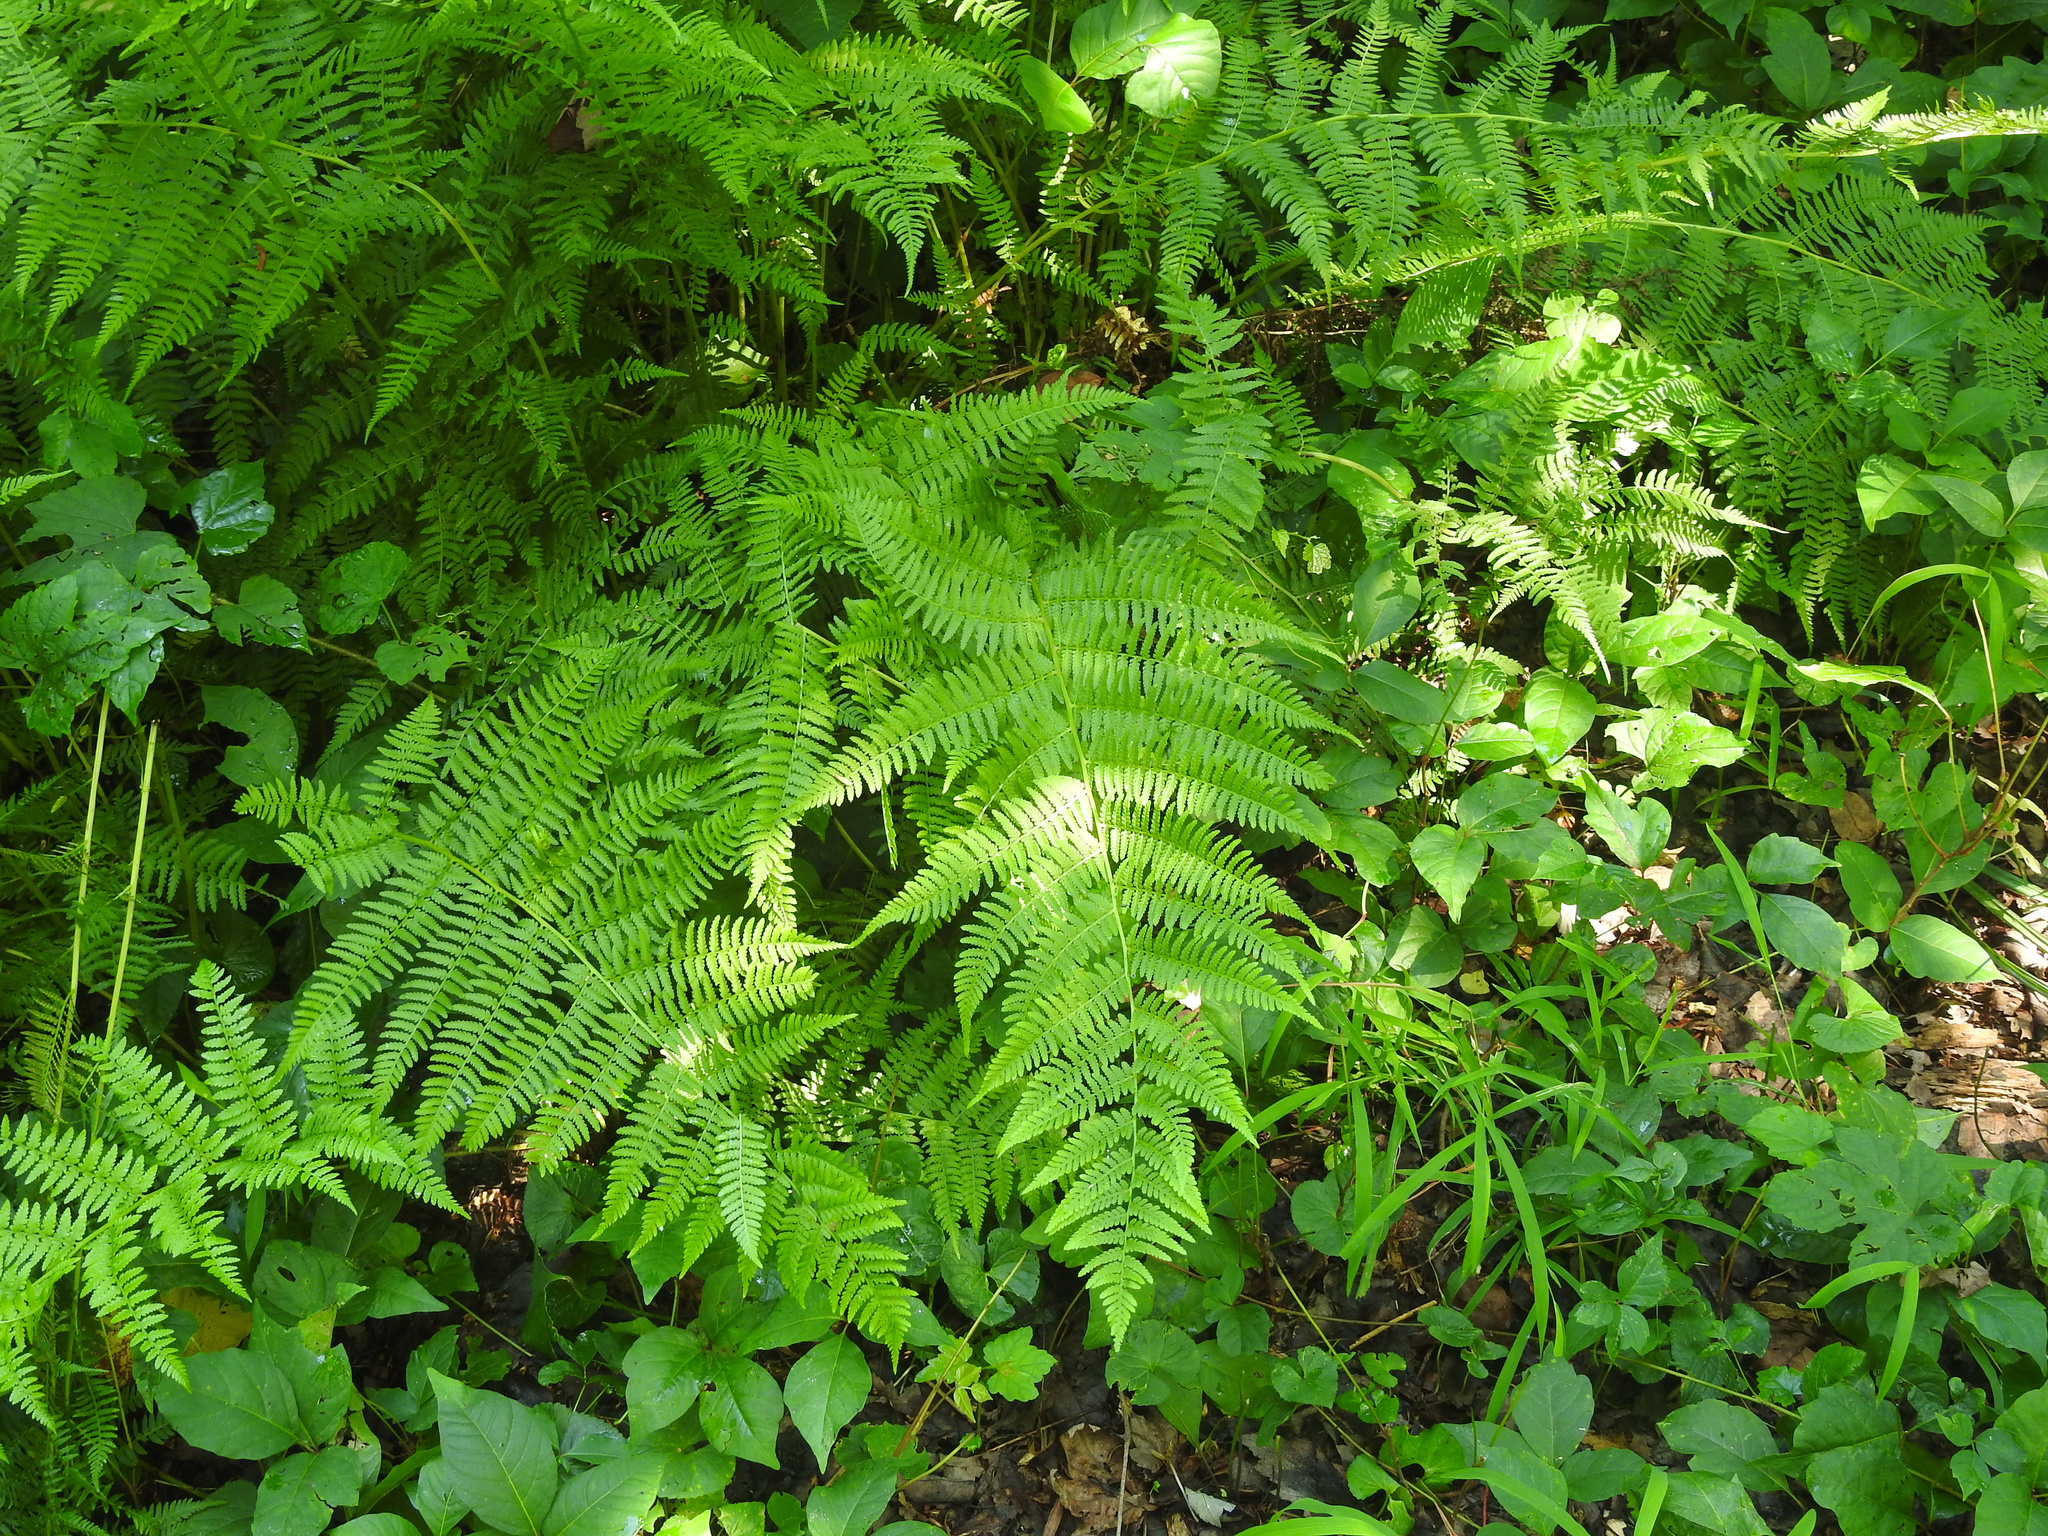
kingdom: Plantae
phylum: Tracheophyta
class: Polypodiopsida
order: Polypodiales
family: Athyriaceae
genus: Athyrium
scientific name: Athyrium angustum
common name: Northern lady fern
